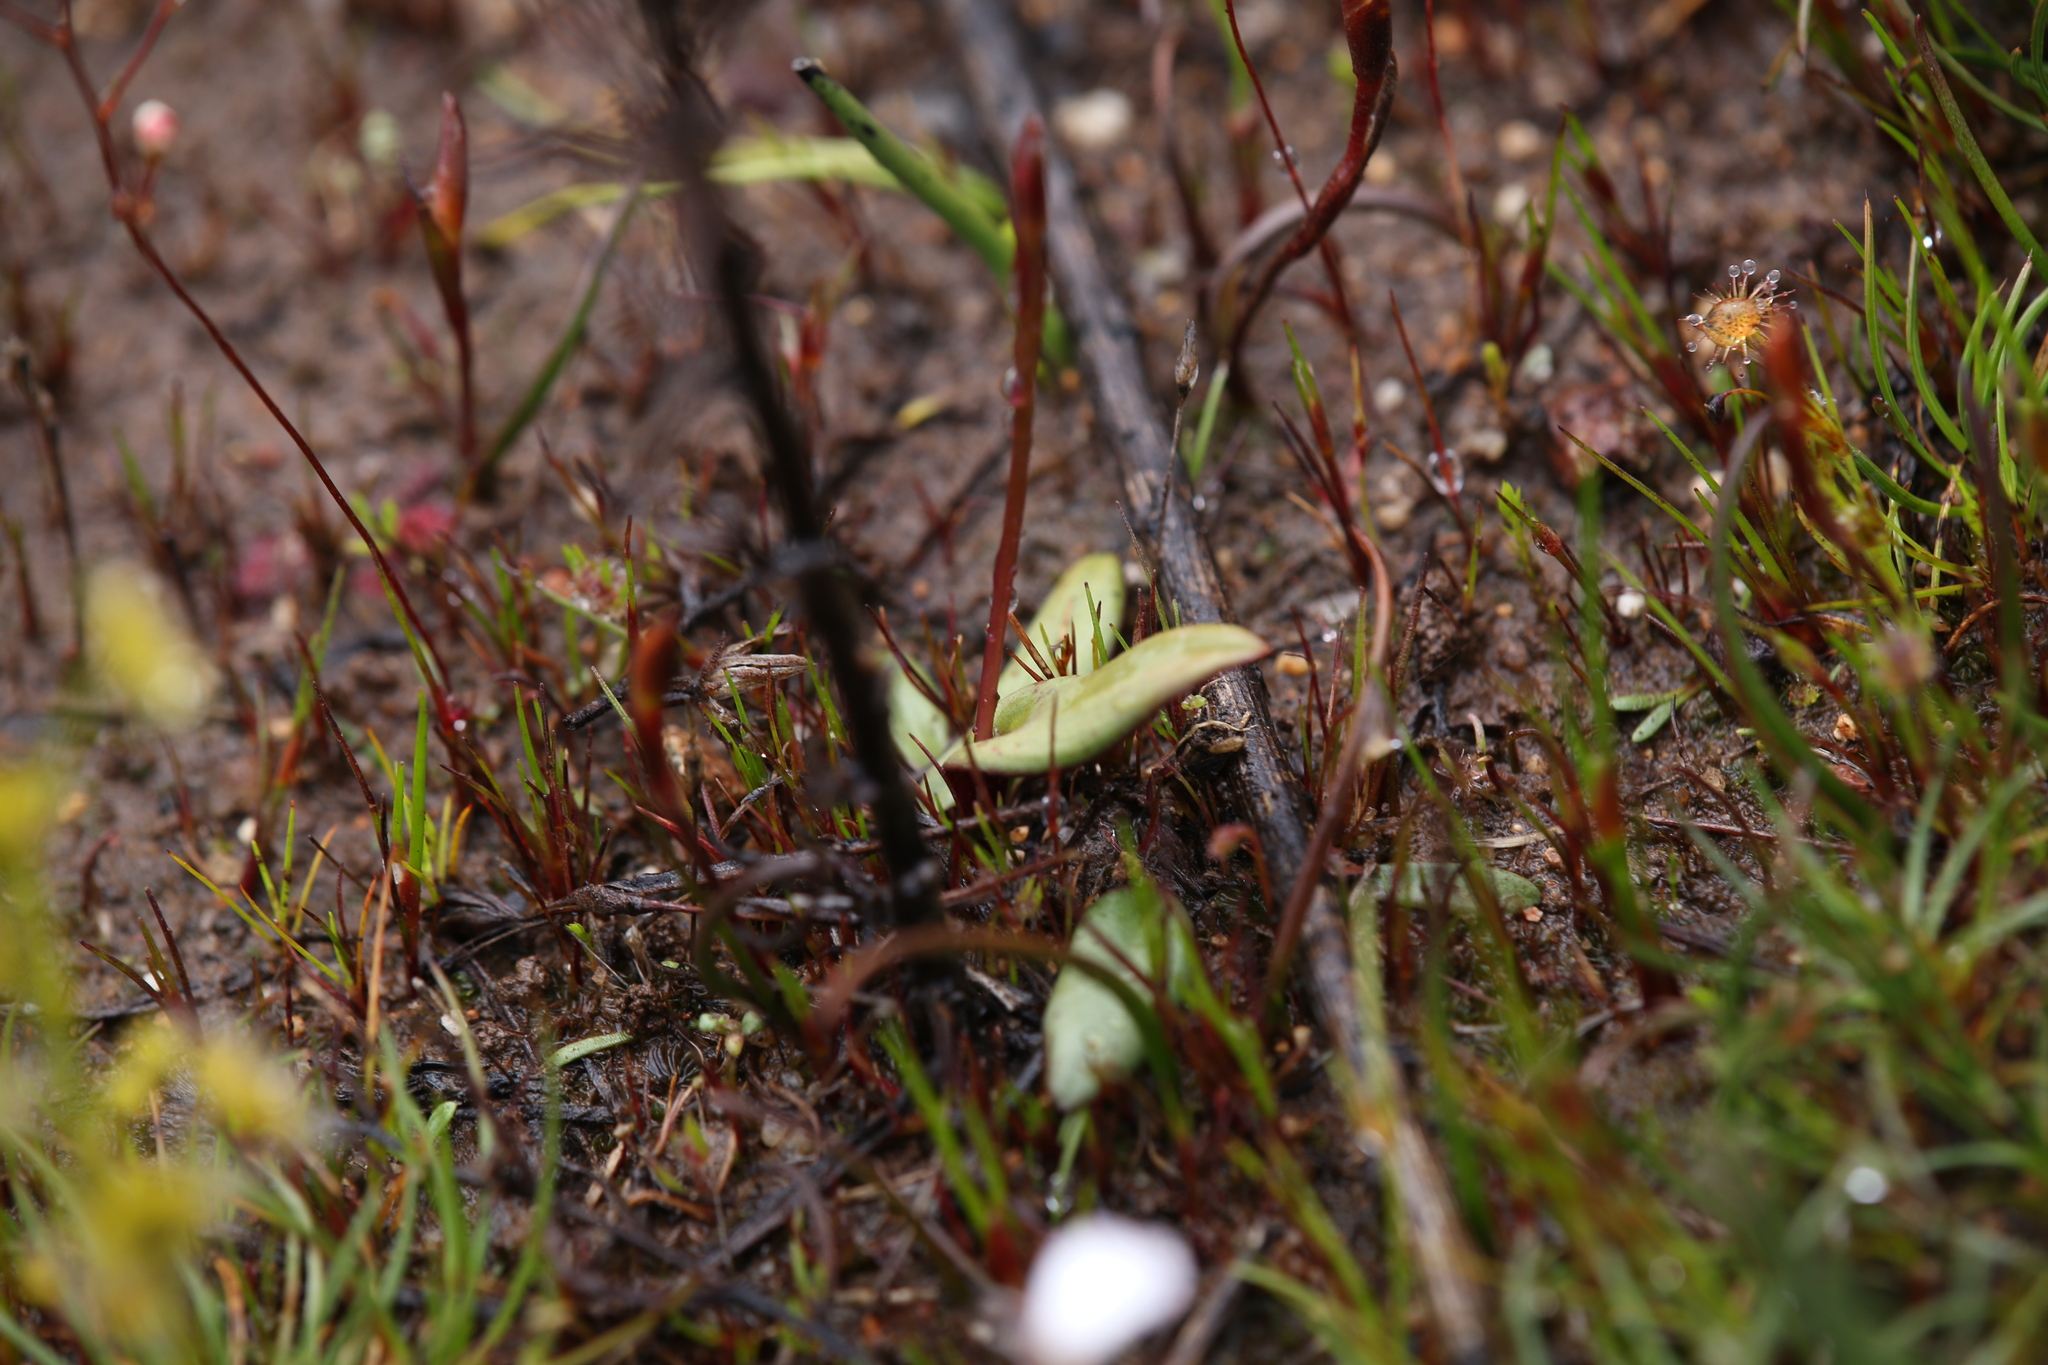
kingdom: Plantae
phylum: Tracheophyta
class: Liliopsida
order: Asparagales
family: Orchidaceae
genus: Spiculaea
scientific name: Spiculaea ciliata
